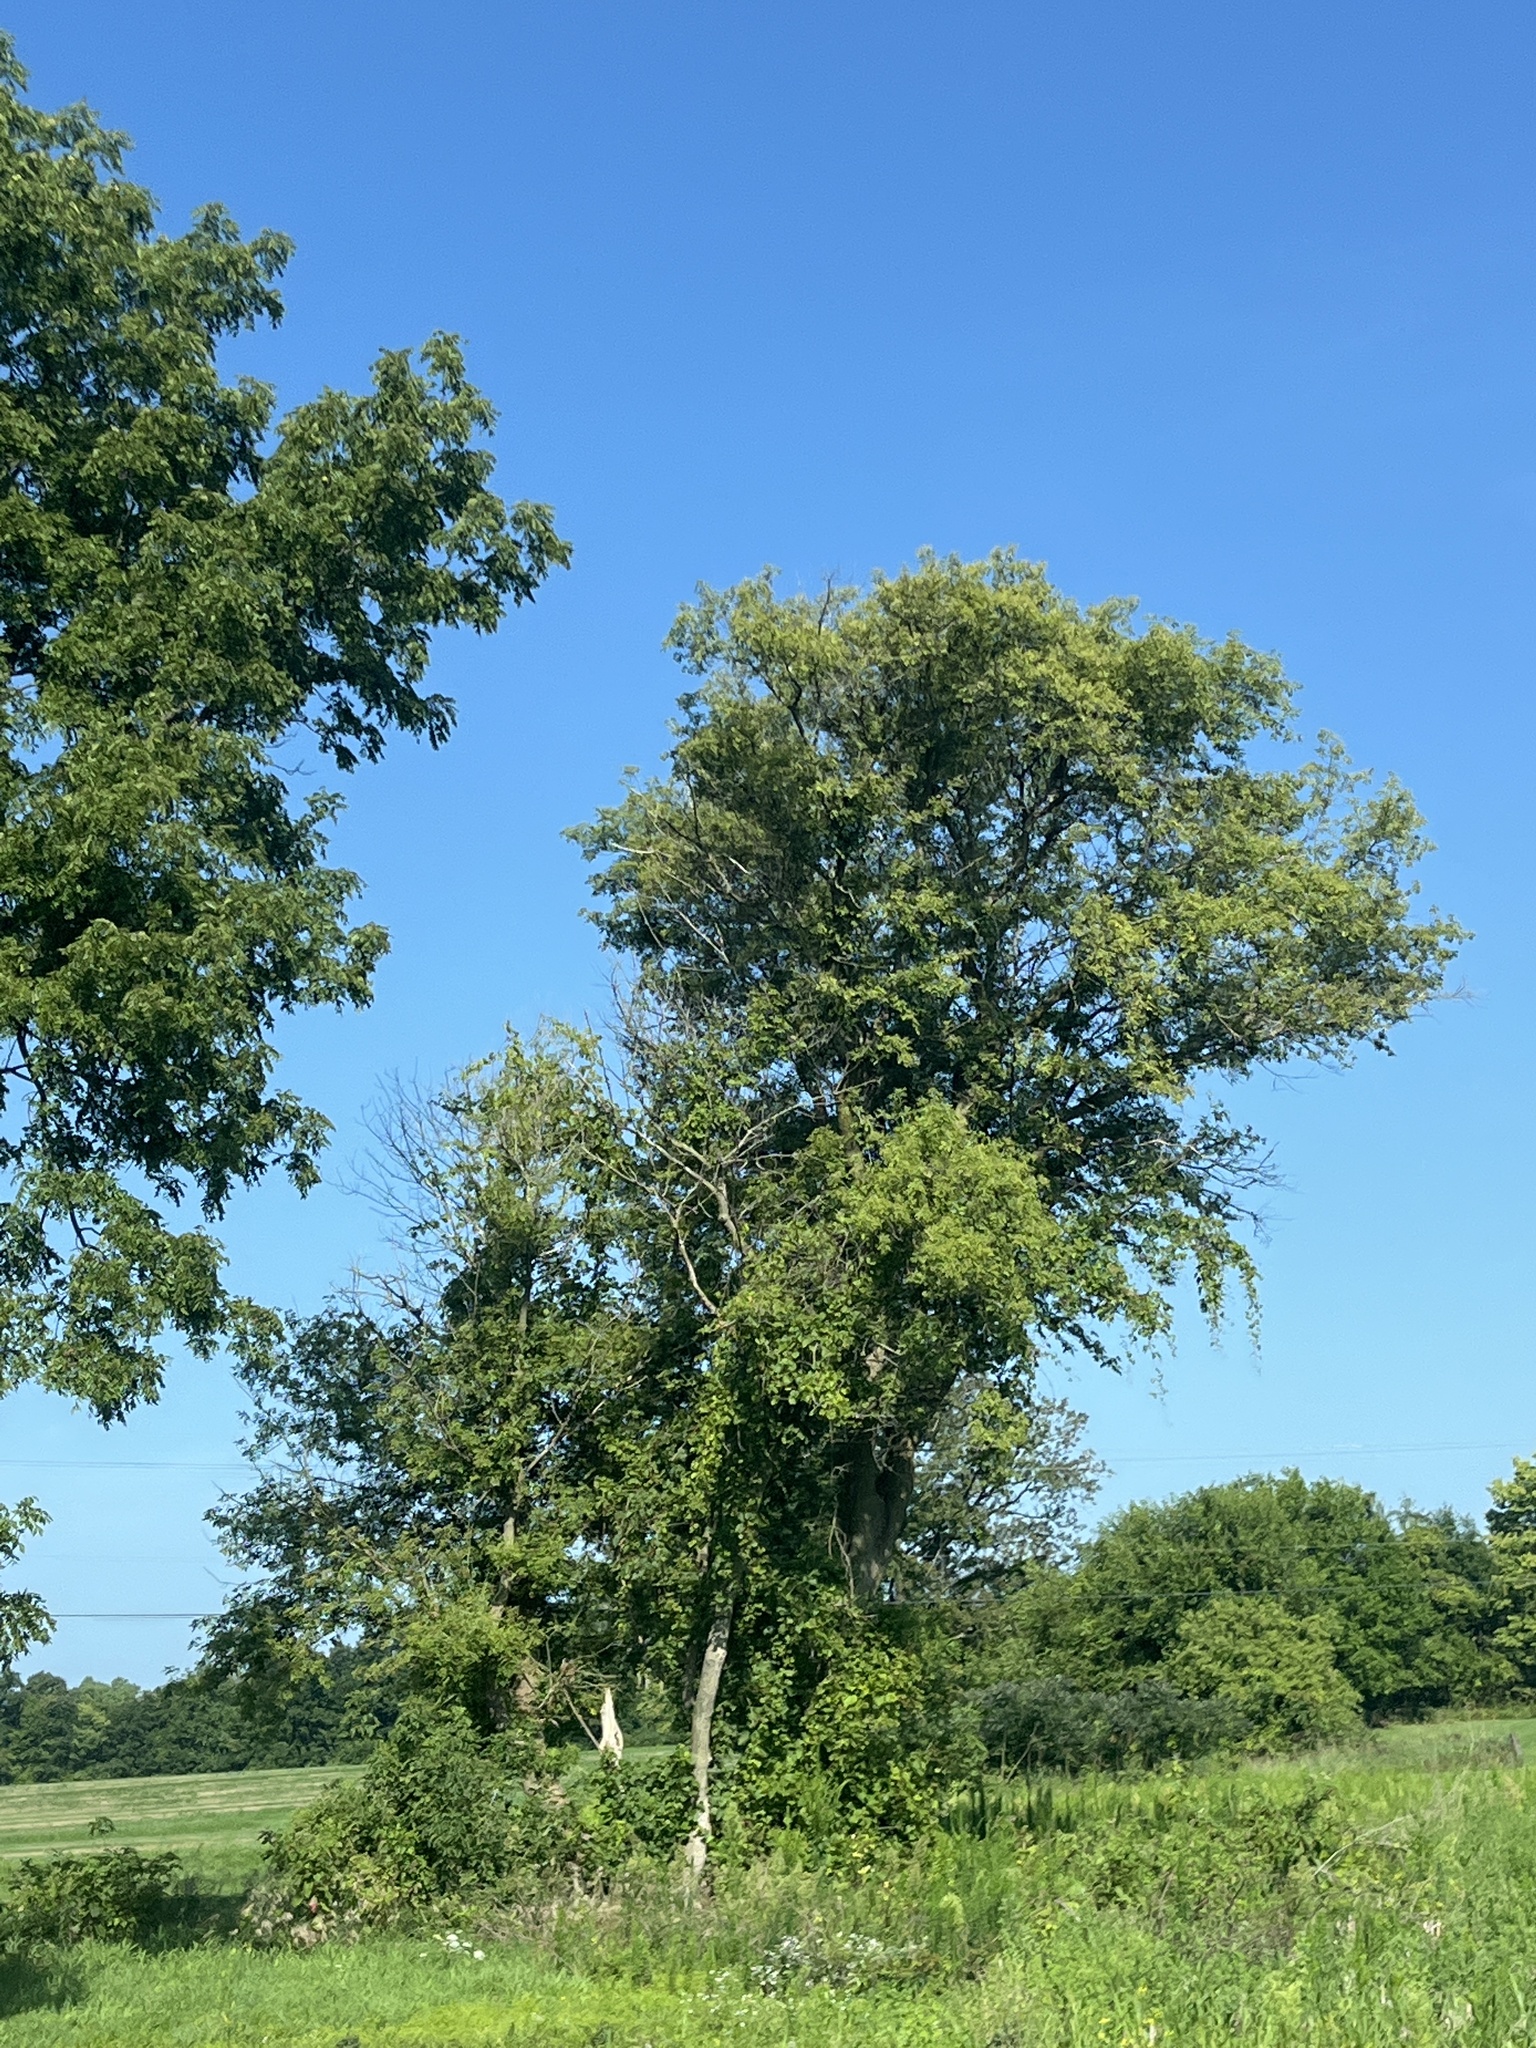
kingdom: Plantae
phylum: Tracheophyta
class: Magnoliopsida
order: Malpighiales
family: Salicaceae
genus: Populus
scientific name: Populus deltoides
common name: Eastern cottonwood
